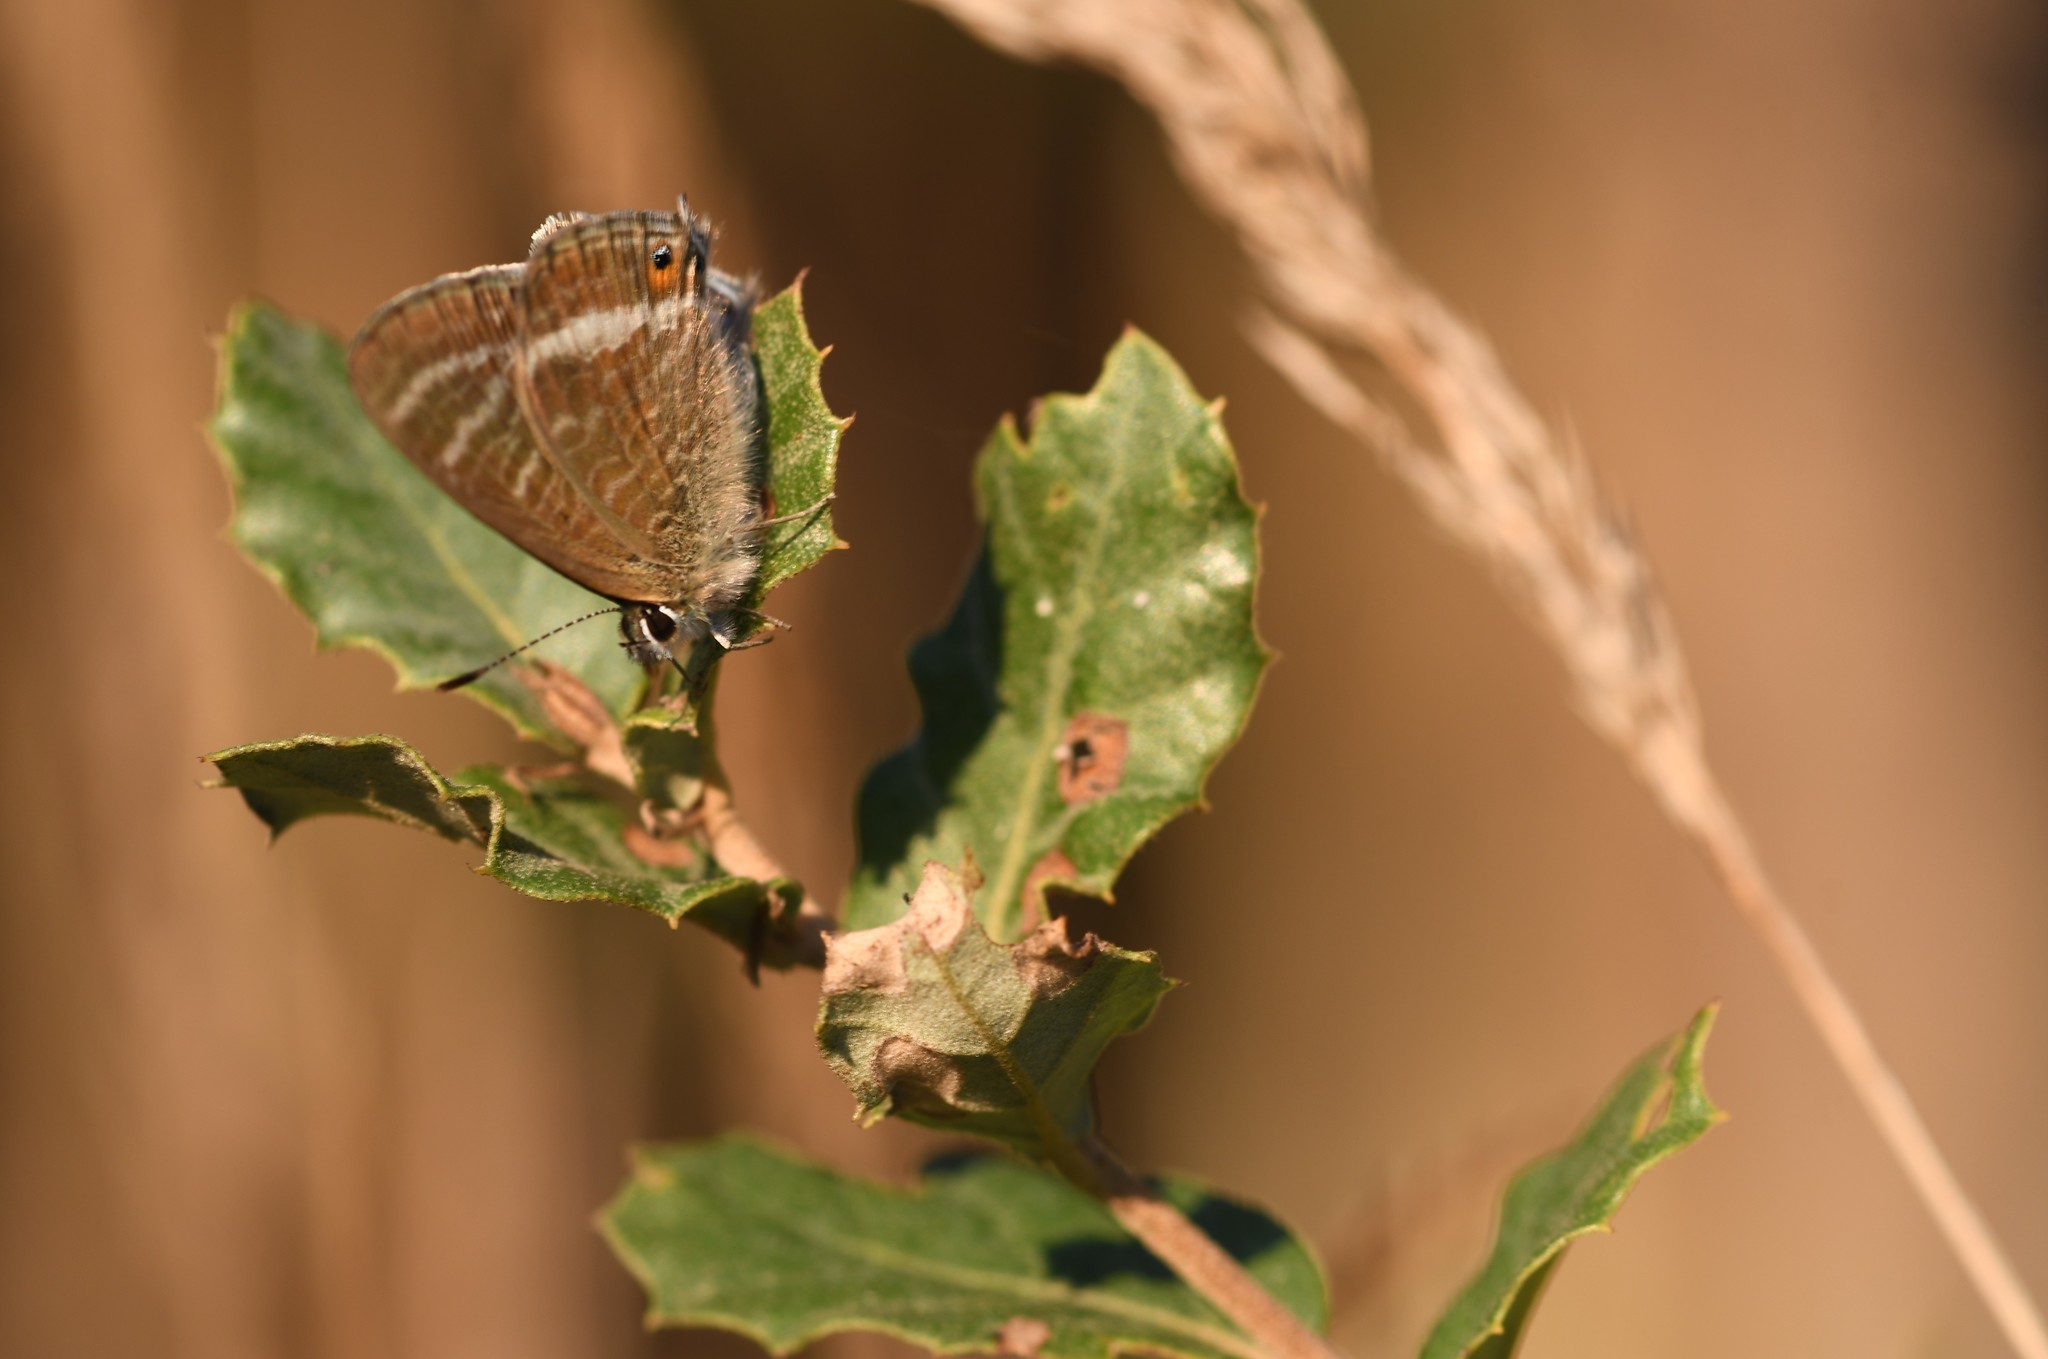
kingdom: Animalia
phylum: Arthropoda
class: Insecta
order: Lepidoptera
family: Lycaenidae
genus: Lampides
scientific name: Lampides boeticus
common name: Long-tailed blue
